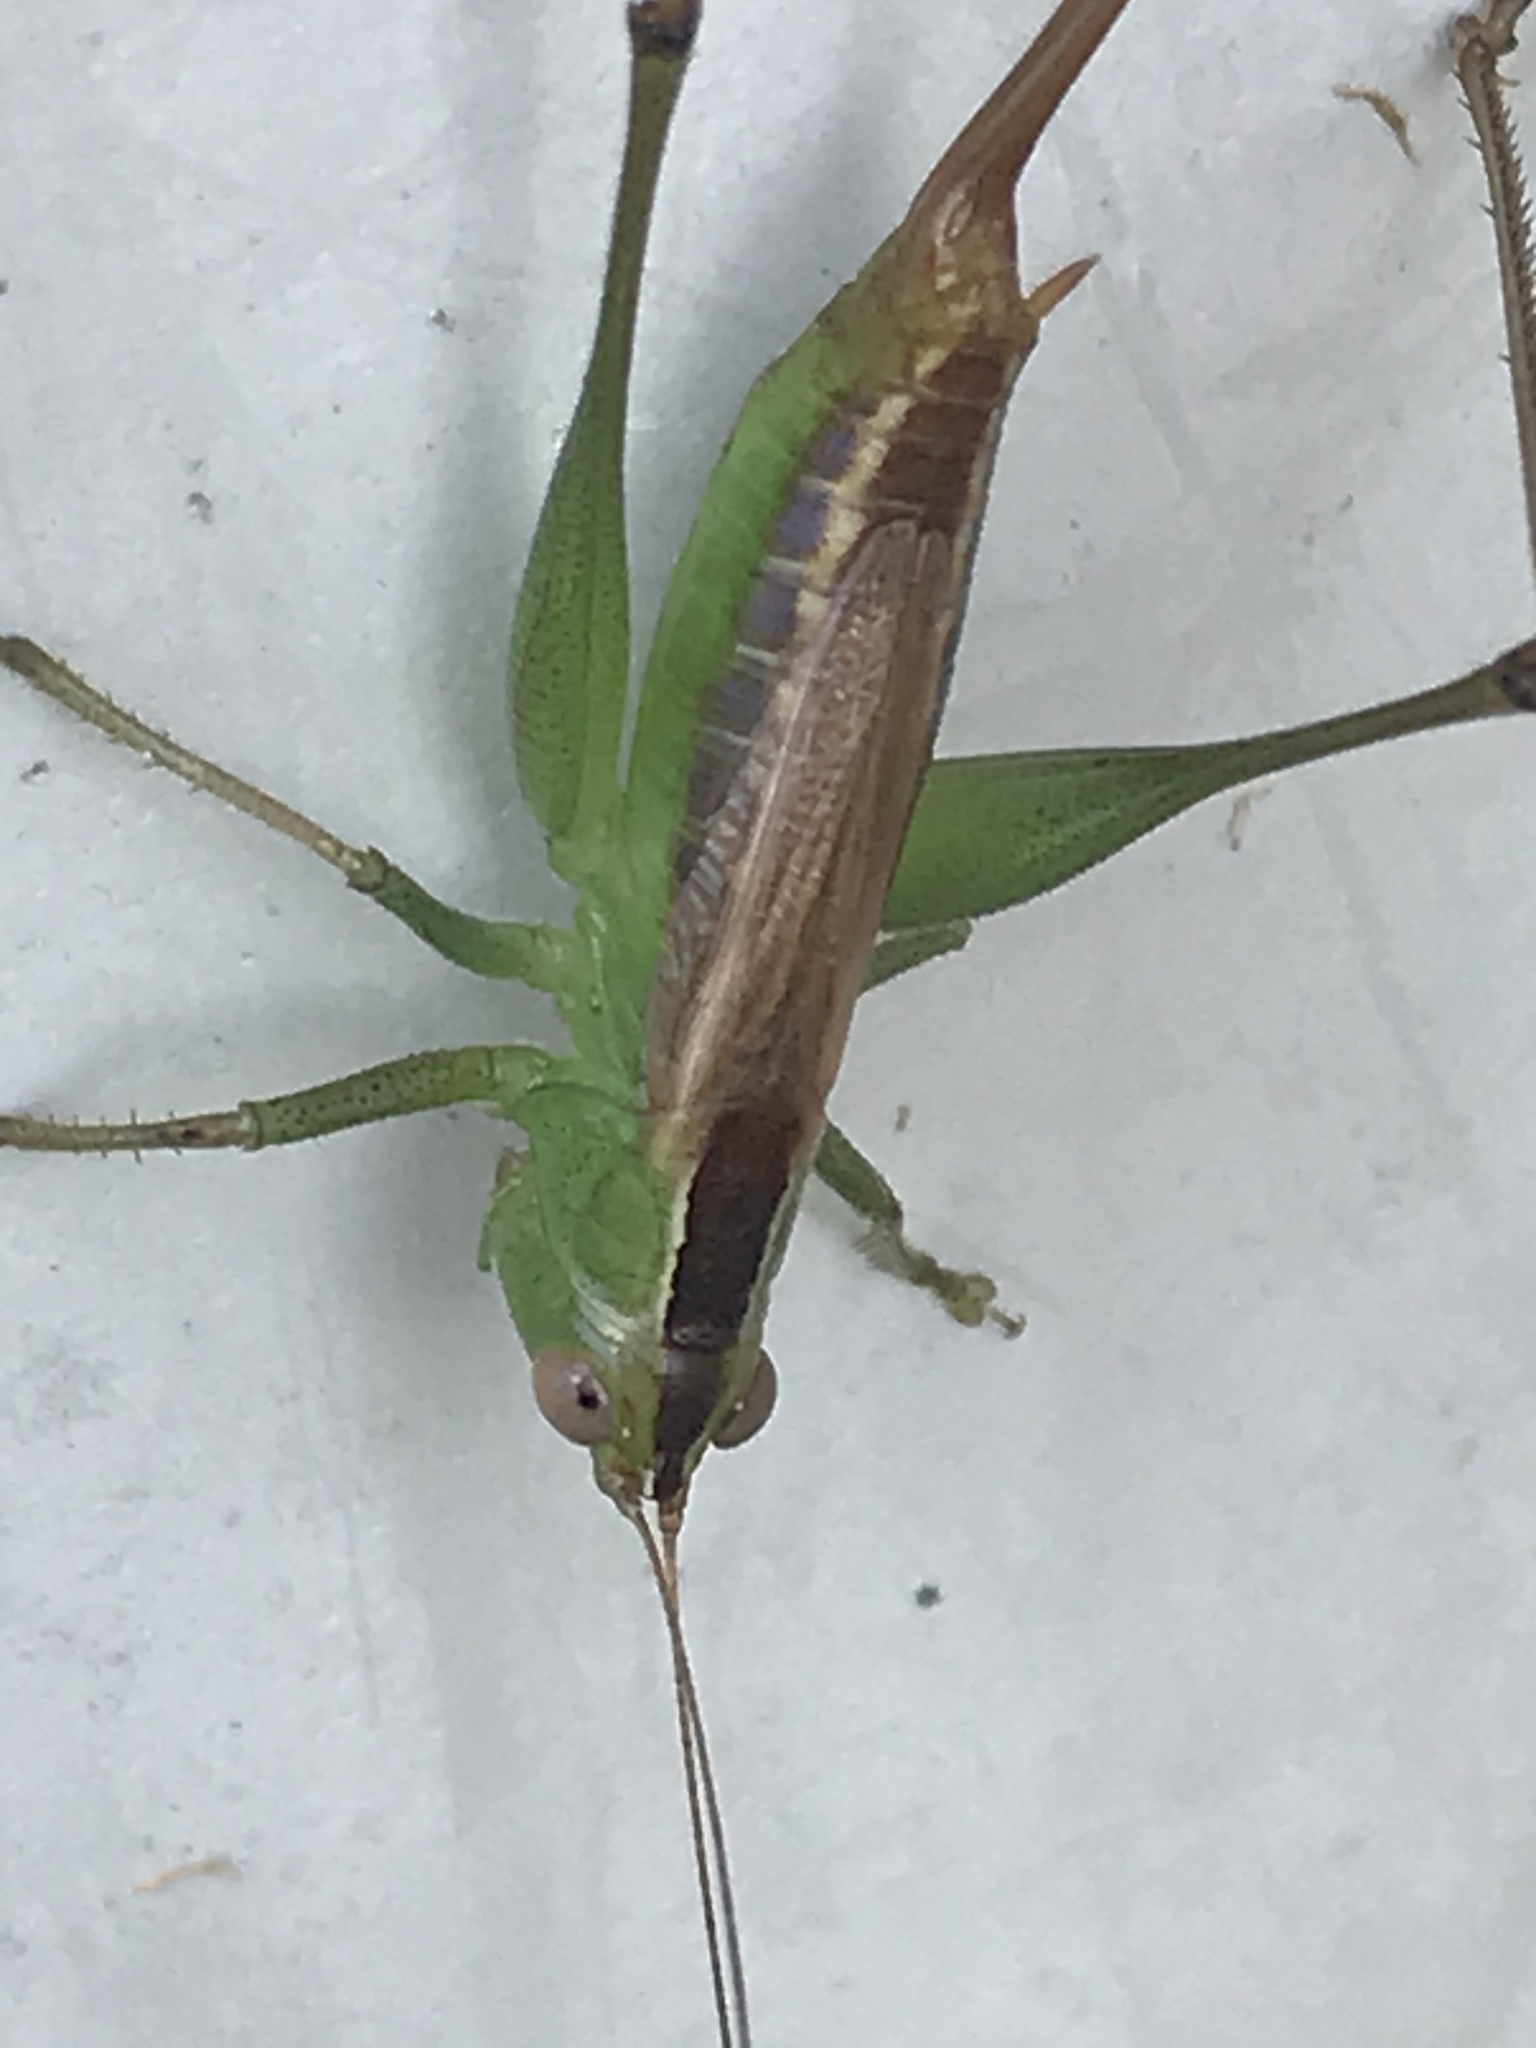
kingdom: Animalia
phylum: Arthropoda
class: Insecta
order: Orthoptera
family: Tettigoniidae
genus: Conocephalus
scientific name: Conocephalus brevipennis
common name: Short-winged meadow katydid
